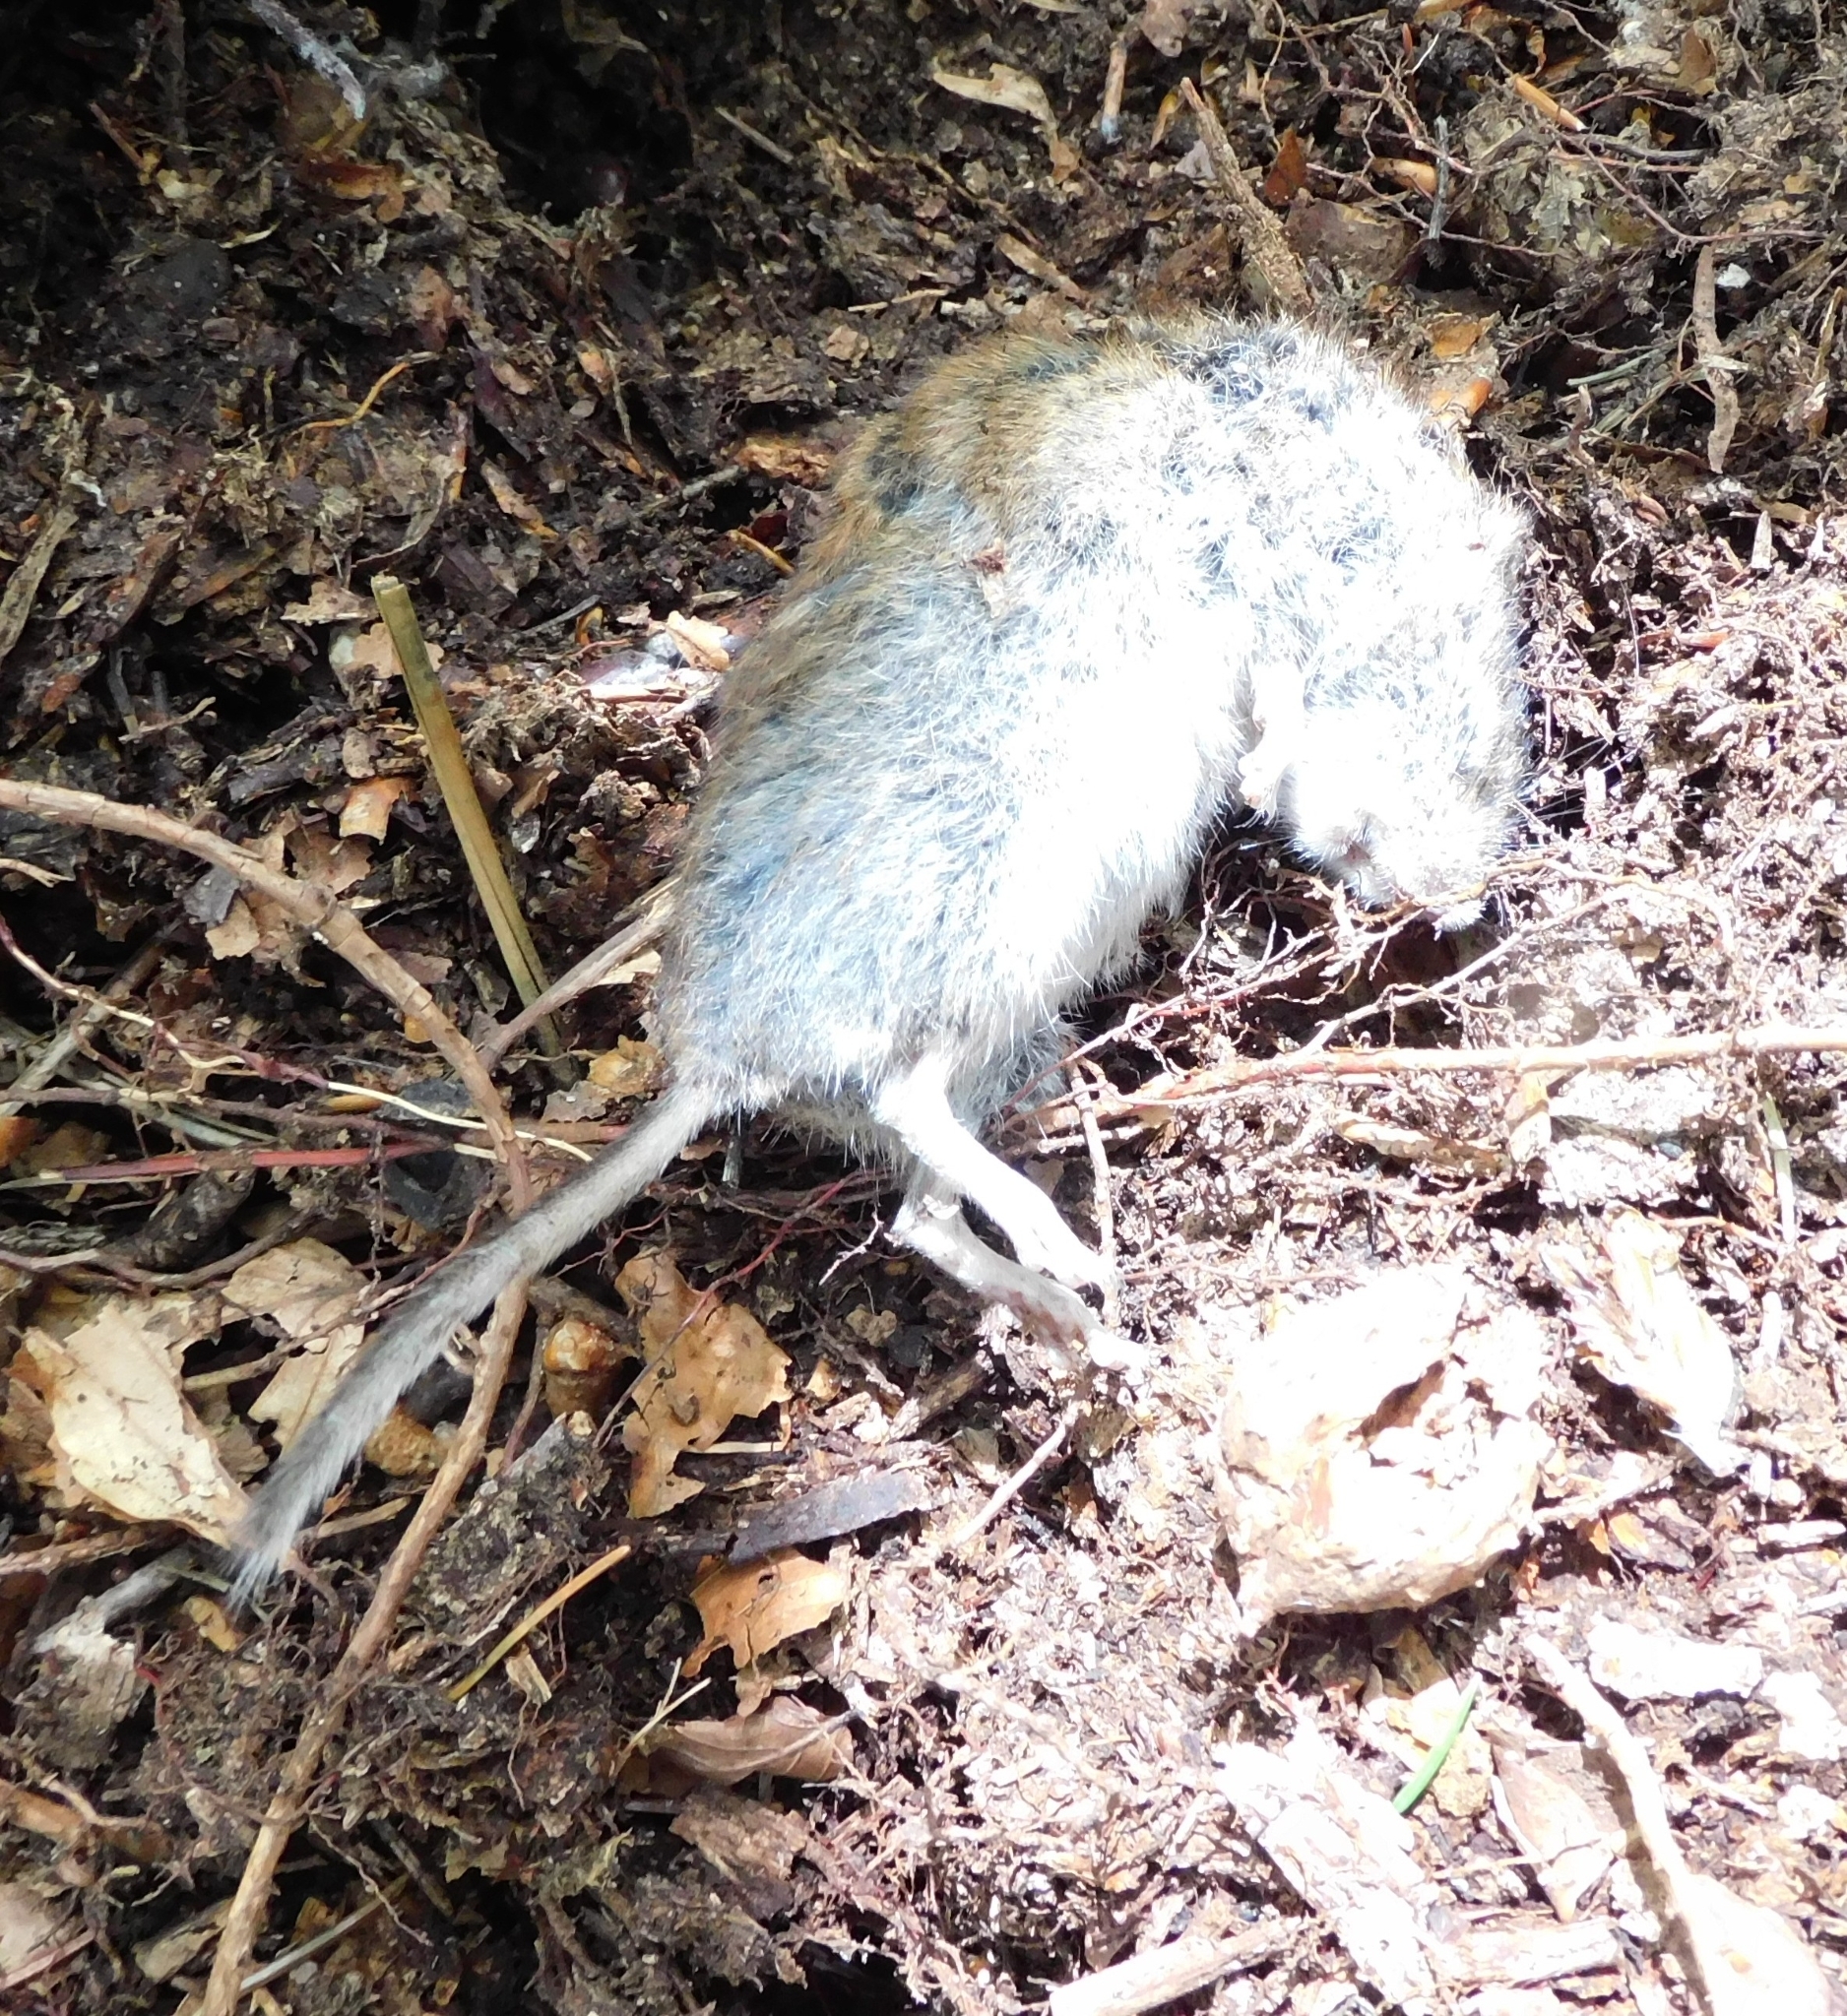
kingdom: Animalia
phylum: Chordata
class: Mammalia
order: Rodentia
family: Cricetidae
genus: Myodes
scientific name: Myodes glareolus
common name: Bank vole
